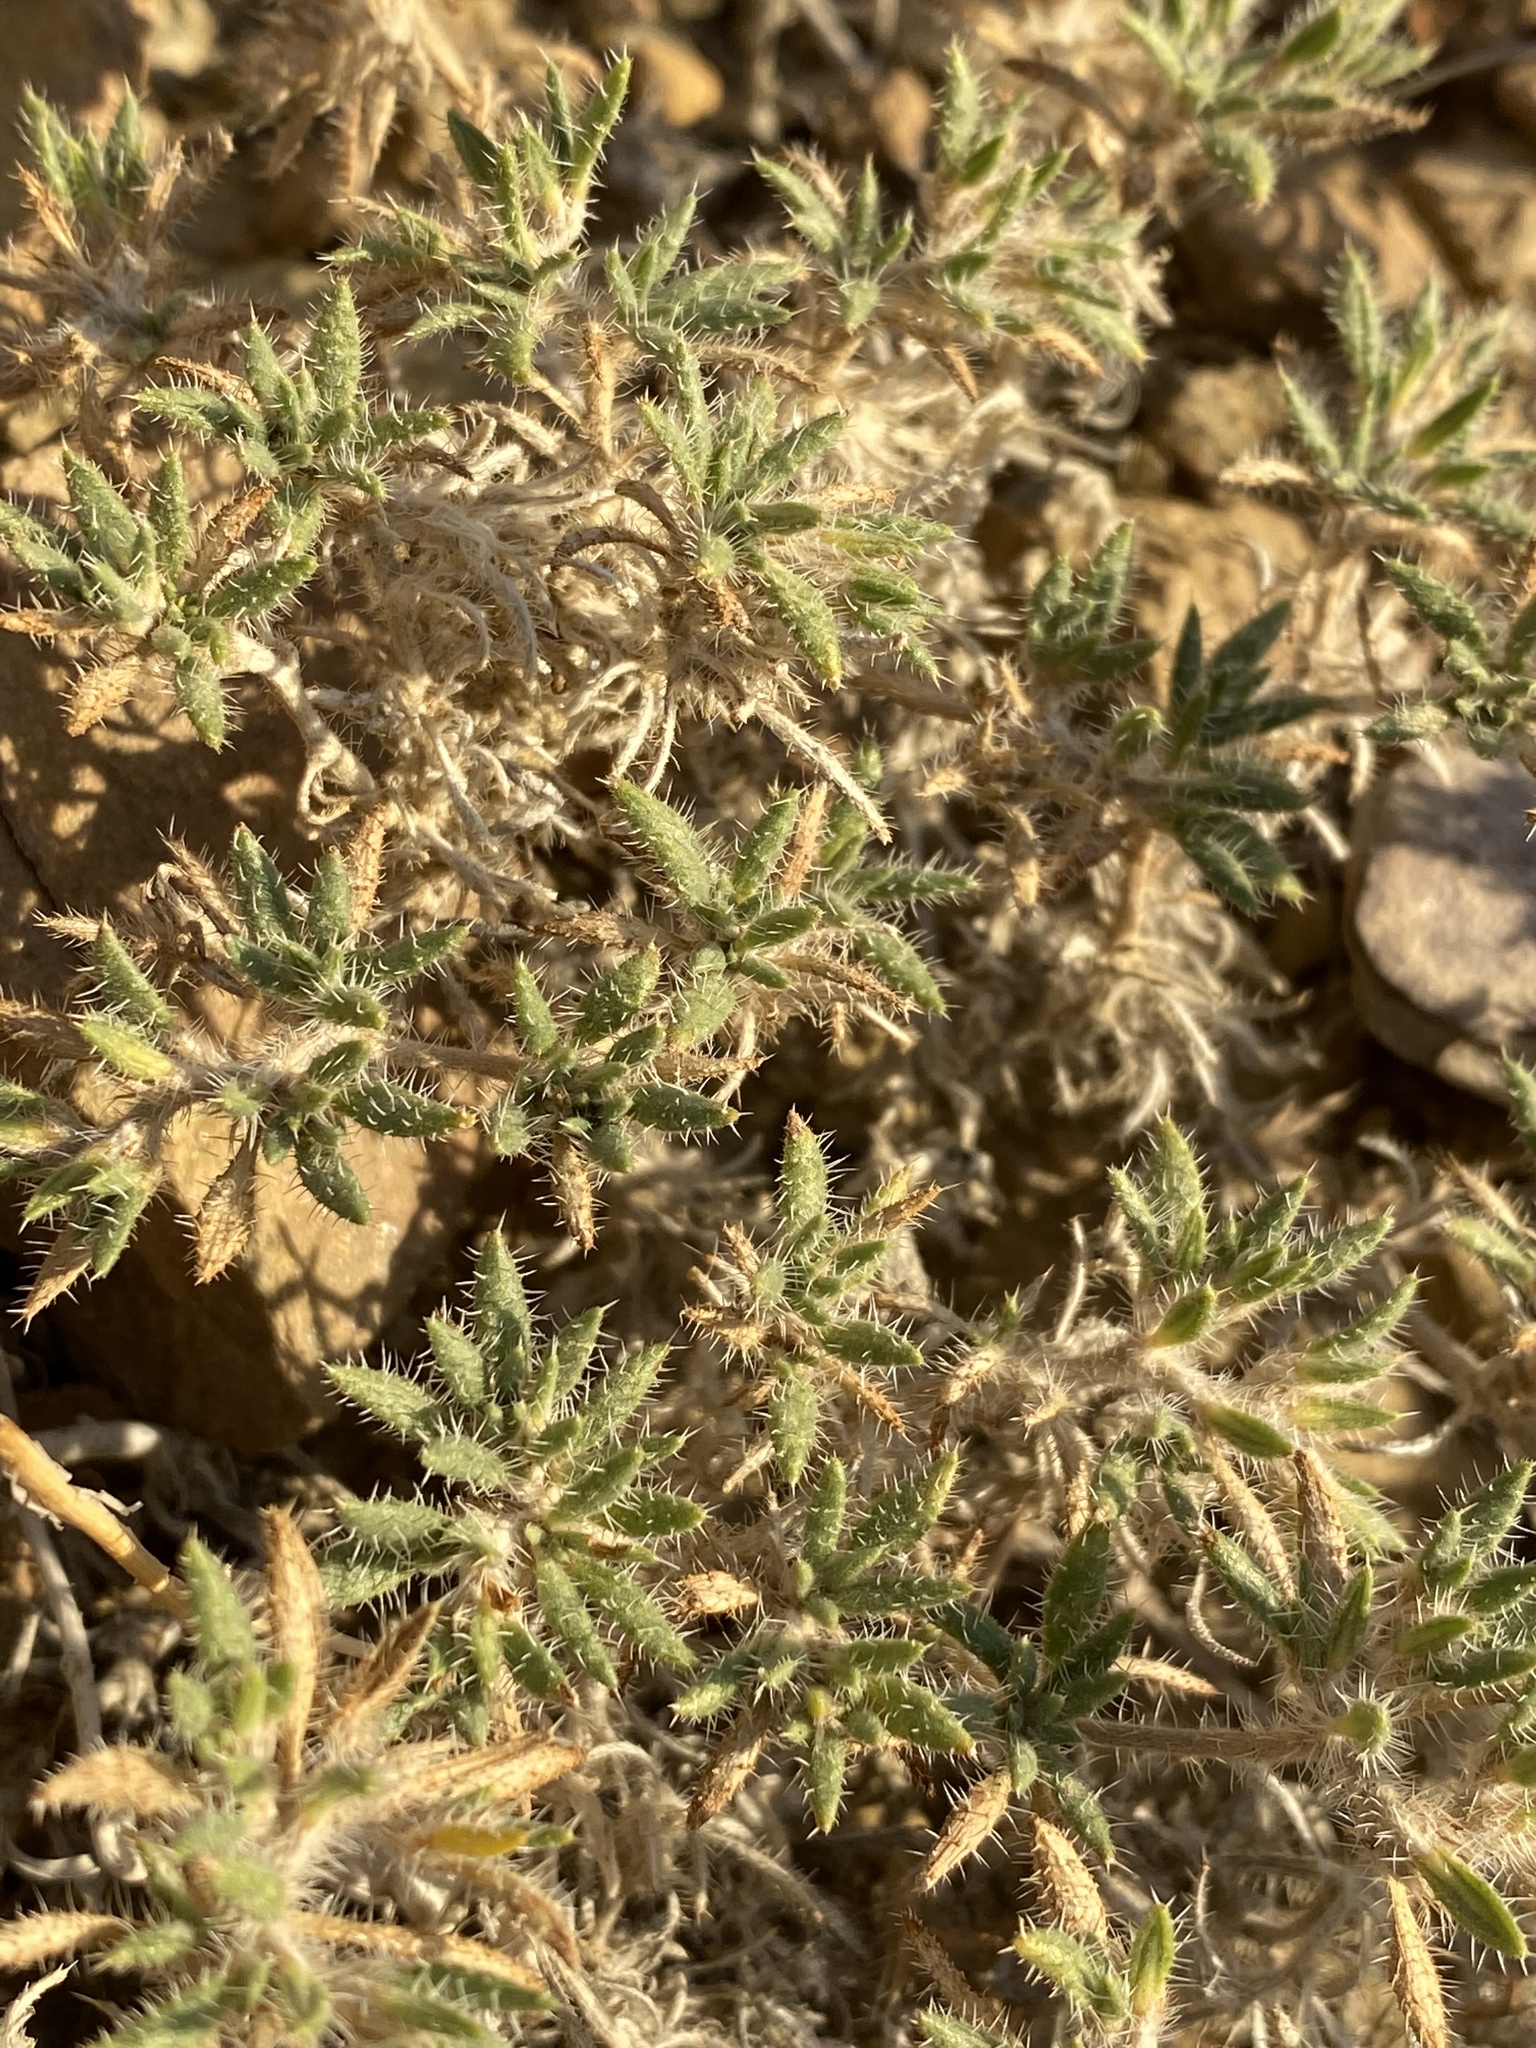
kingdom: Plantae
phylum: Tracheophyta
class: Magnoliopsida
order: Boraginales
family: Ehretiaceae
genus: Tiquilia
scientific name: Tiquilia latior
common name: Matted tiquilia
